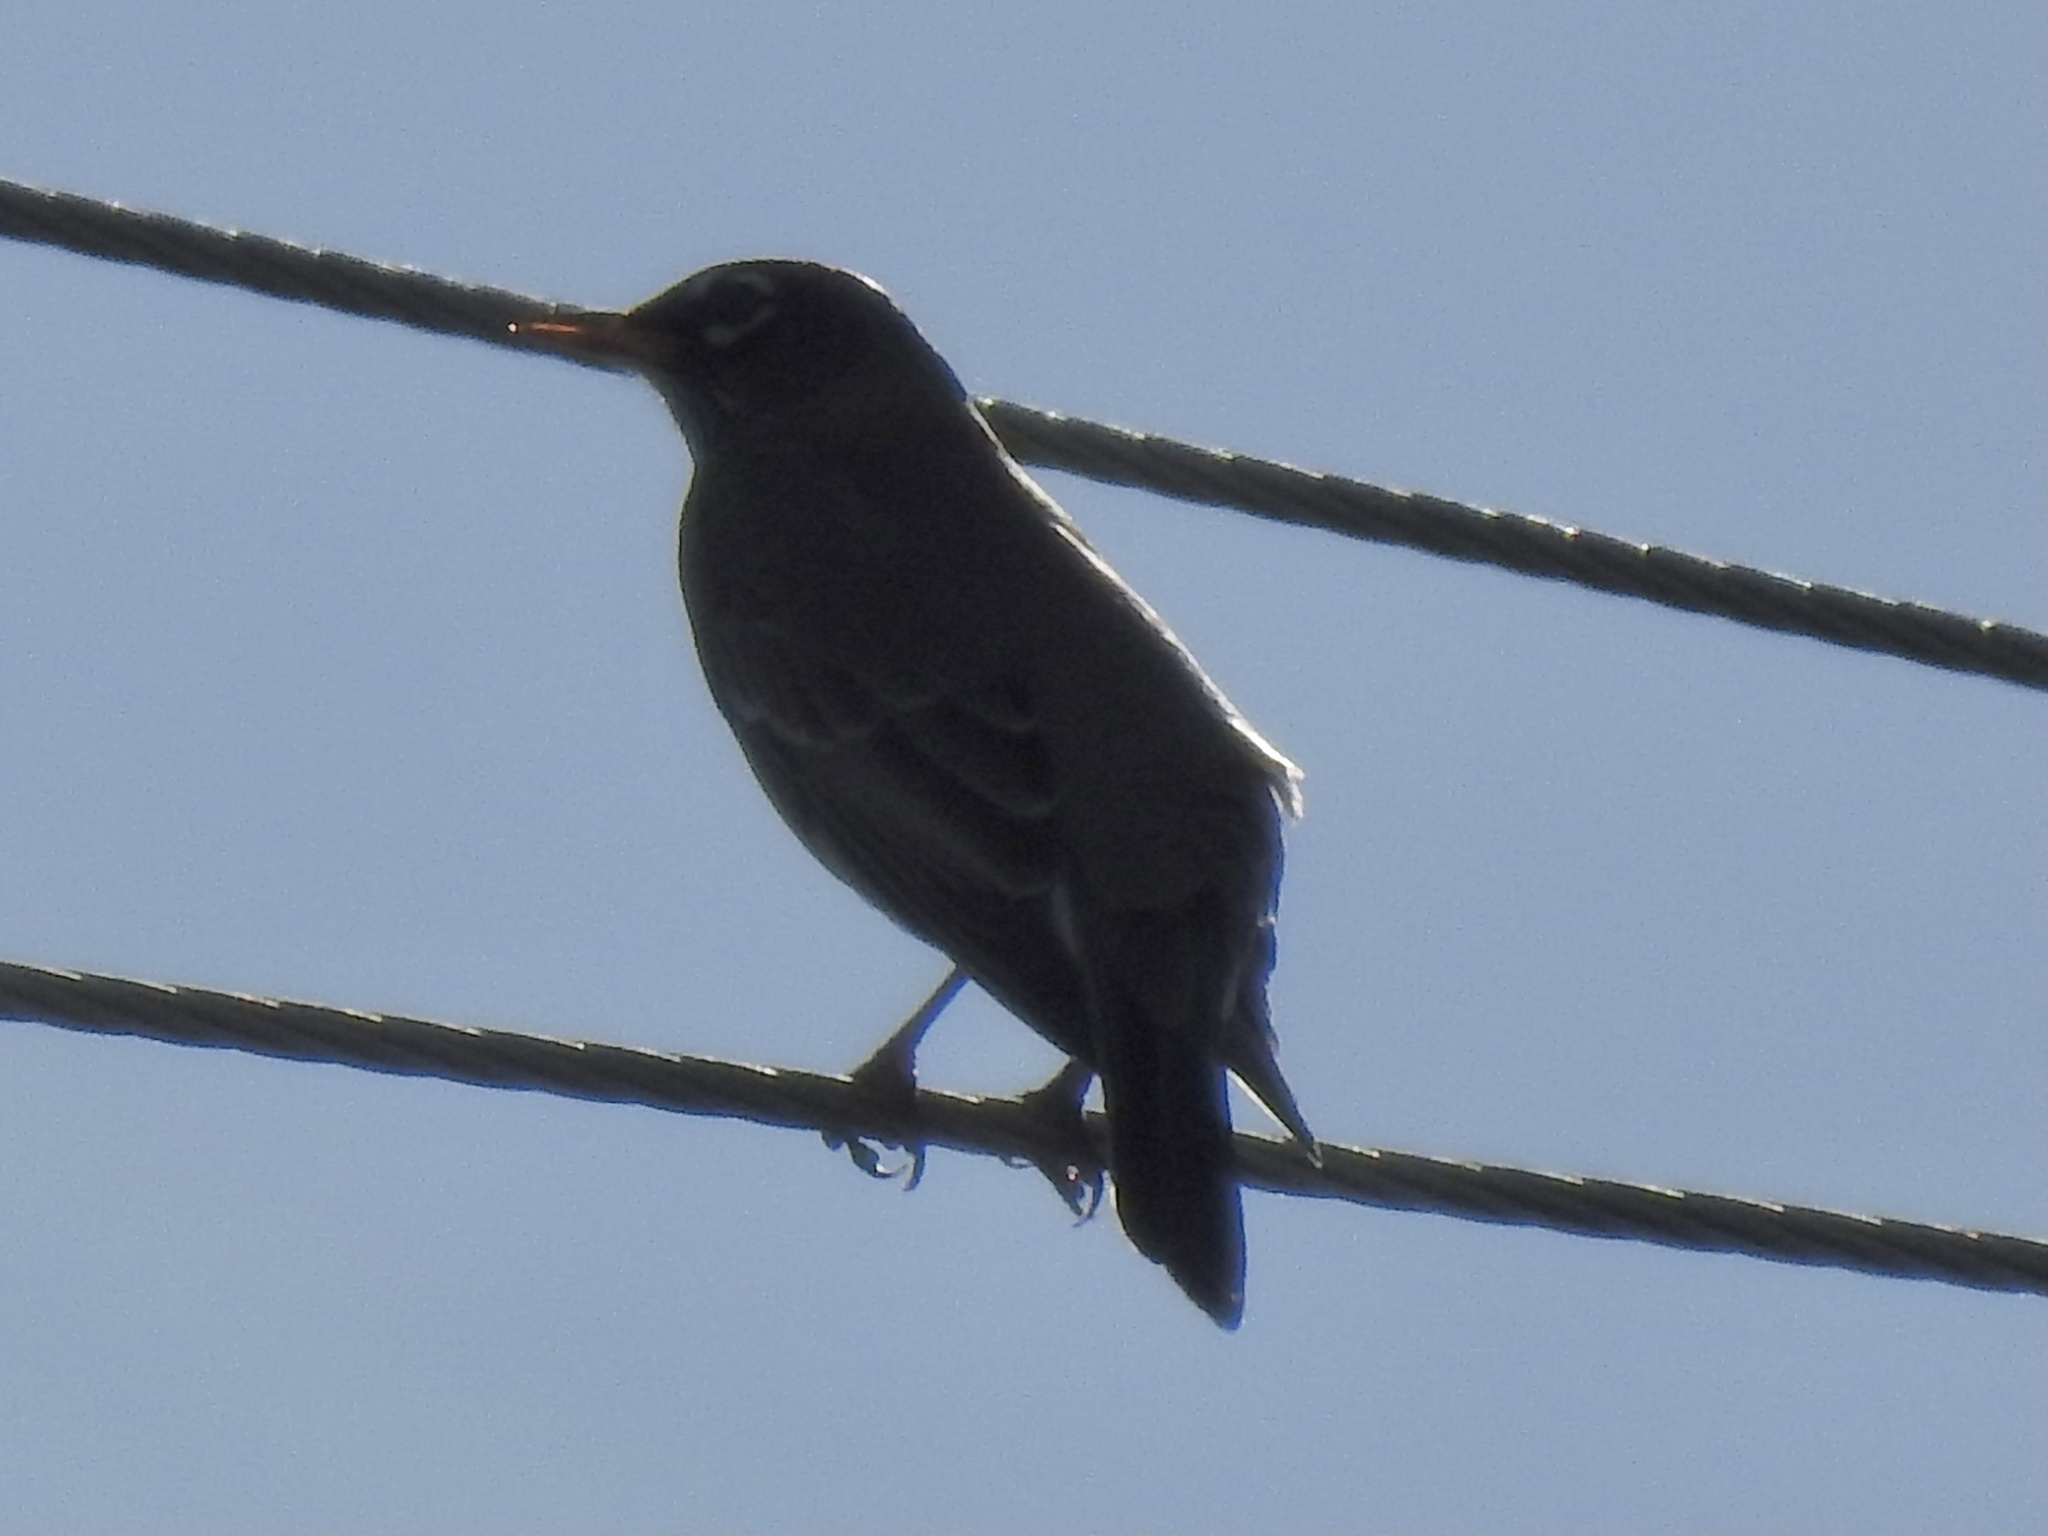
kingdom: Animalia
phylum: Chordata
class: Aves
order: Passeriformes
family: Turdidae
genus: Turdus
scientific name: Turdus migratorius
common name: American robin
